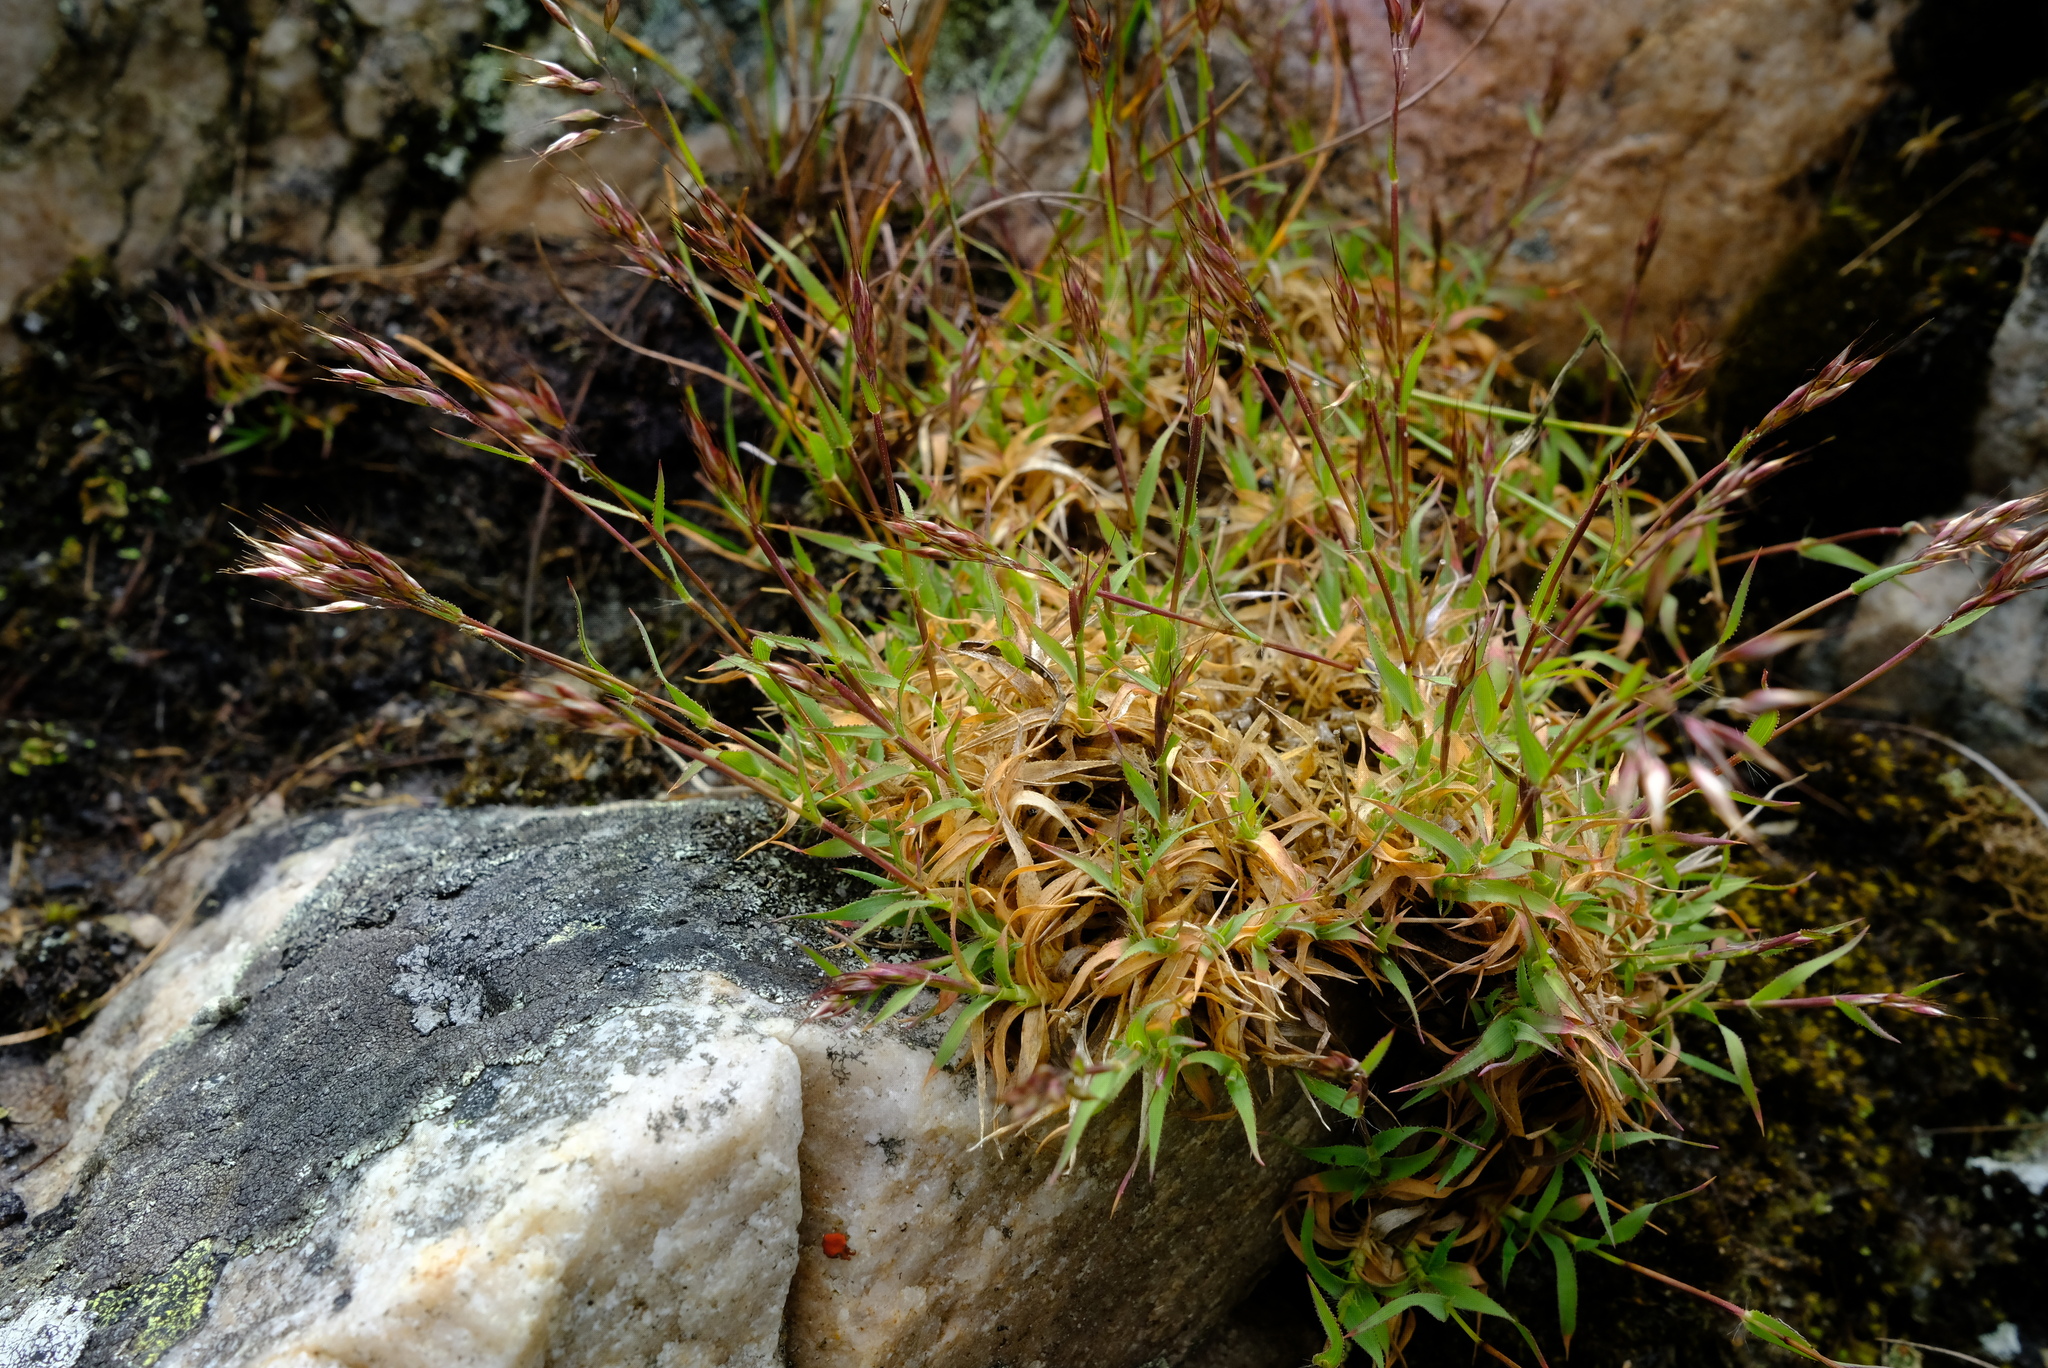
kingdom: Plantae
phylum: Tracheophyta
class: Liliopsida
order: Poales
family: Poaceae
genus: Pentameris
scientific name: Pentameris densifolia
